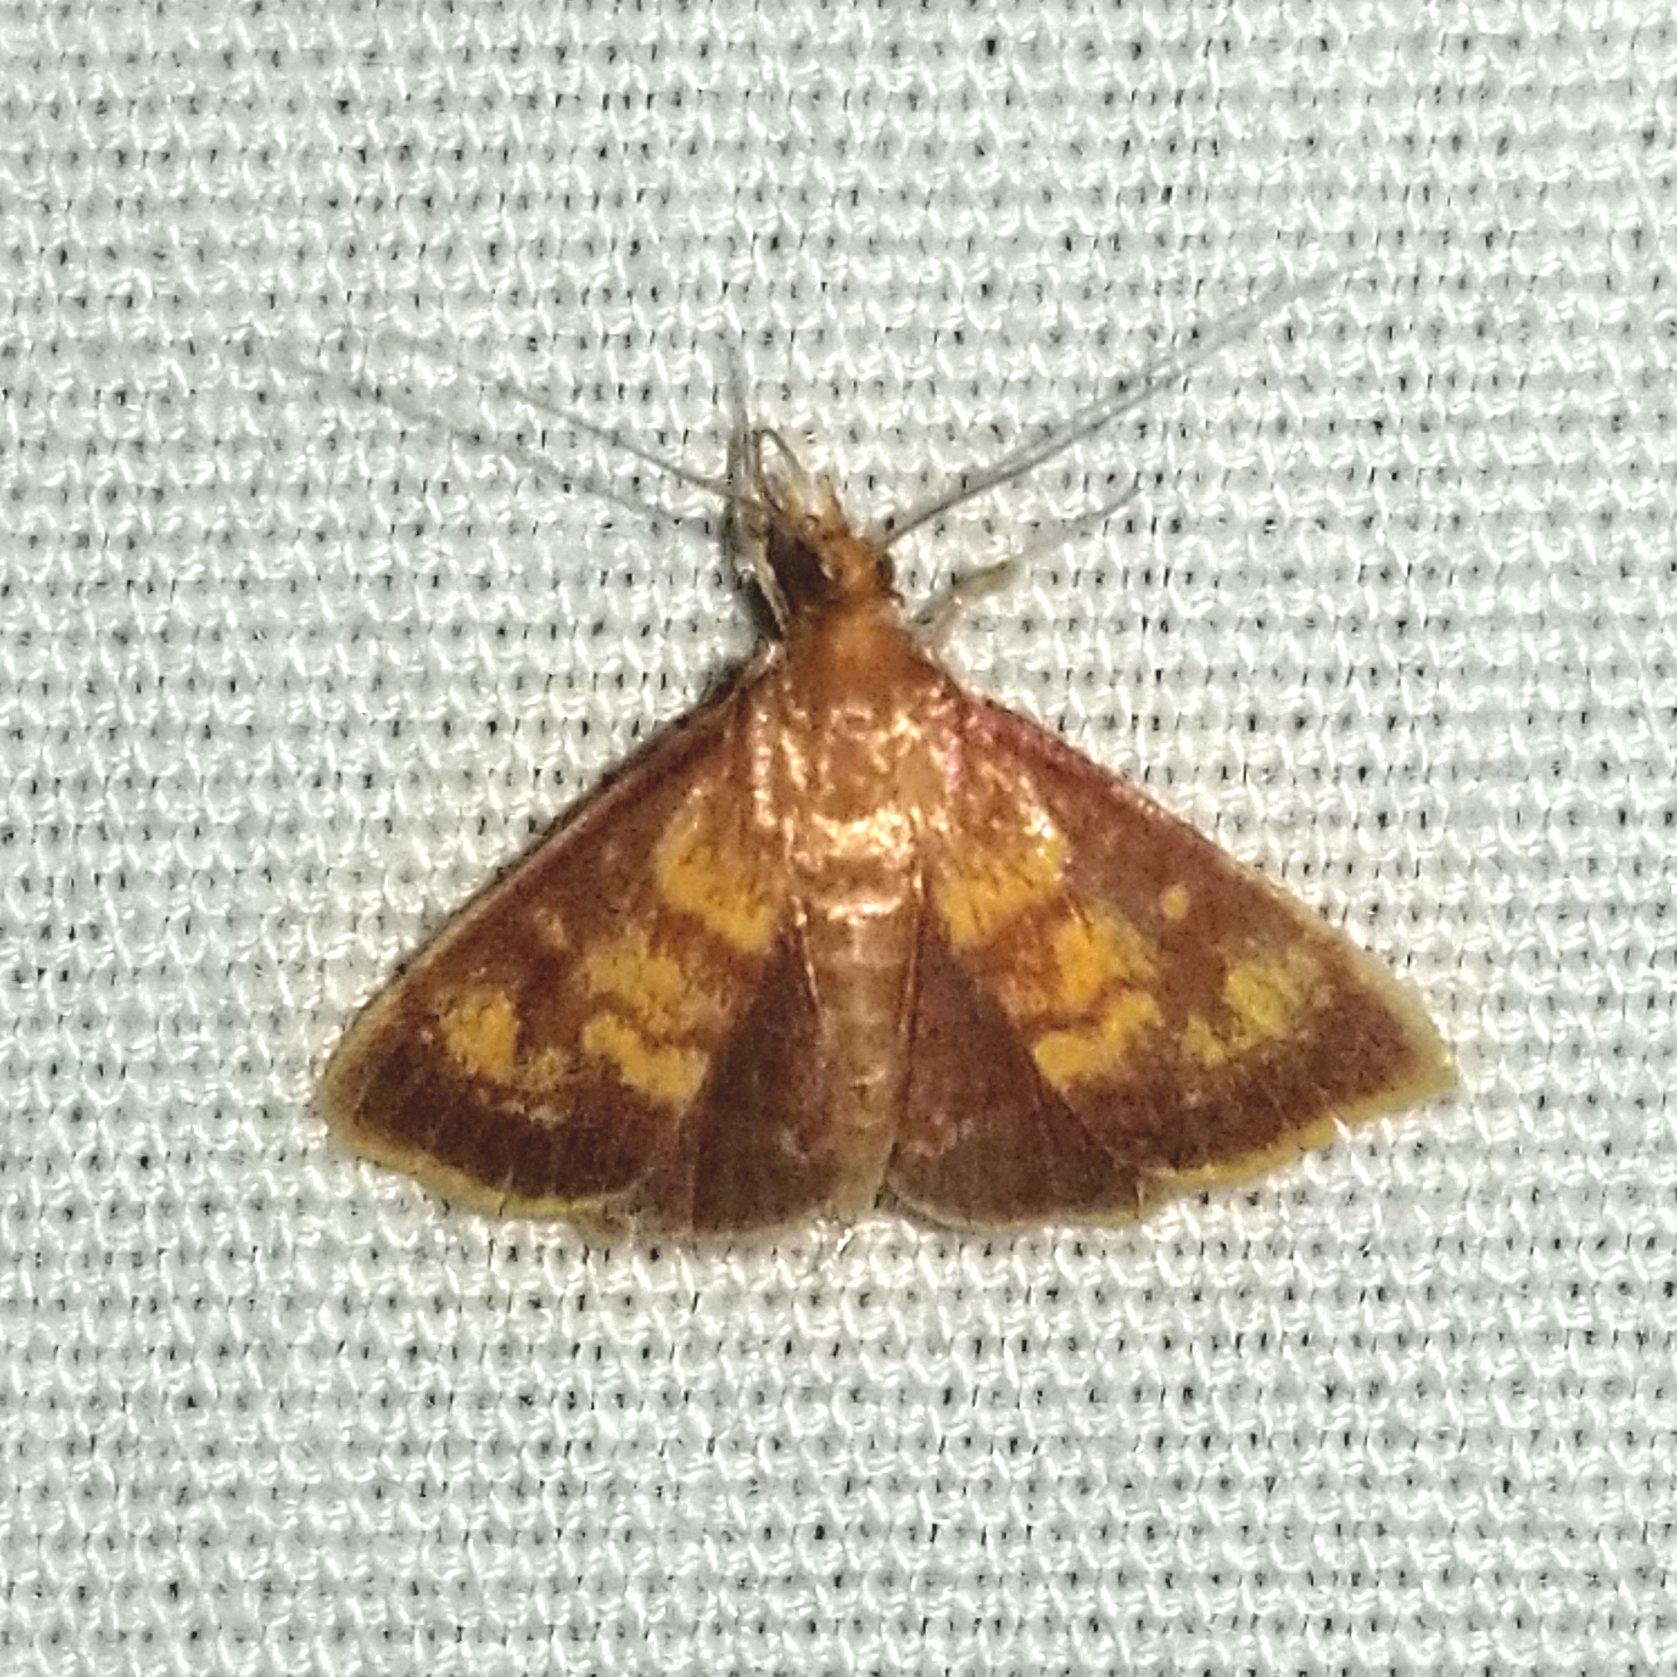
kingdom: Animalia
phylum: Arthropoda
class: Insecta
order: Lepidoptera
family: Crambidae
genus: Pyrausta
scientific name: Pyrausta acrionalis
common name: Mint-loving pyrausta moth
